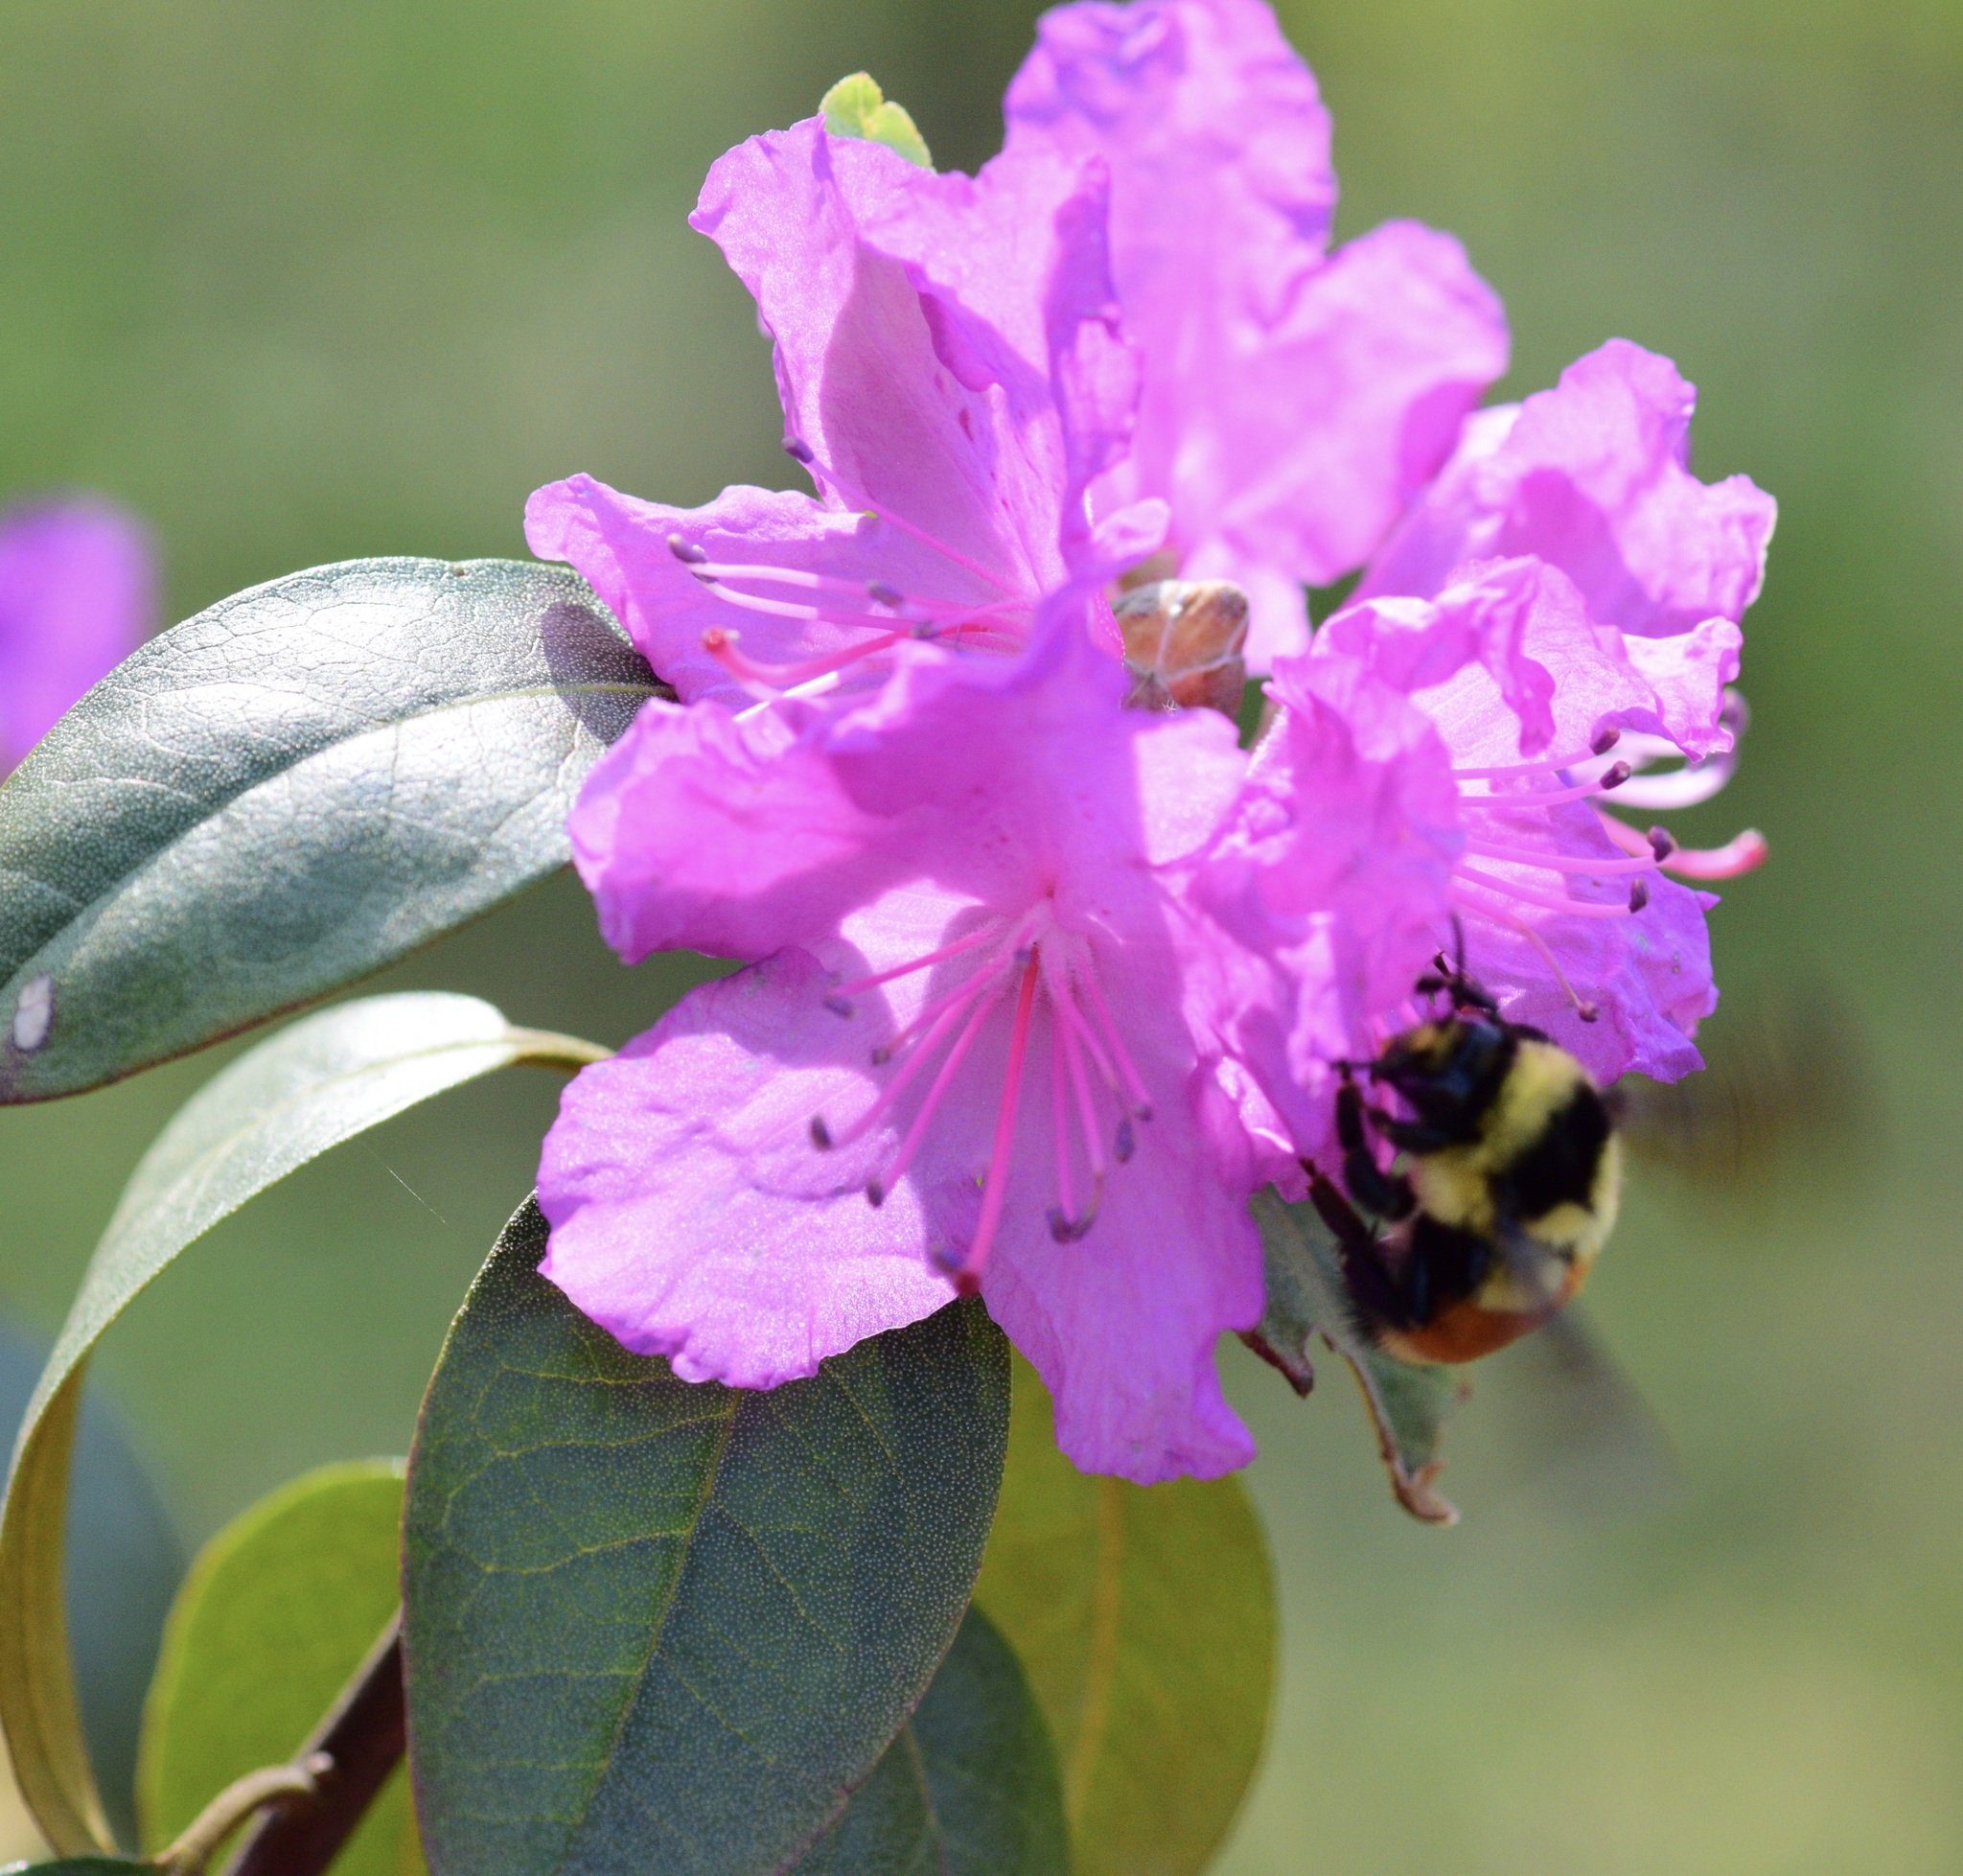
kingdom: Animalia
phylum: Arthropoda
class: Insecta
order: Hymenoptera
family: Apidae
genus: Bombus
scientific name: Bombus ternarius
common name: Tri-colored bumble bee
